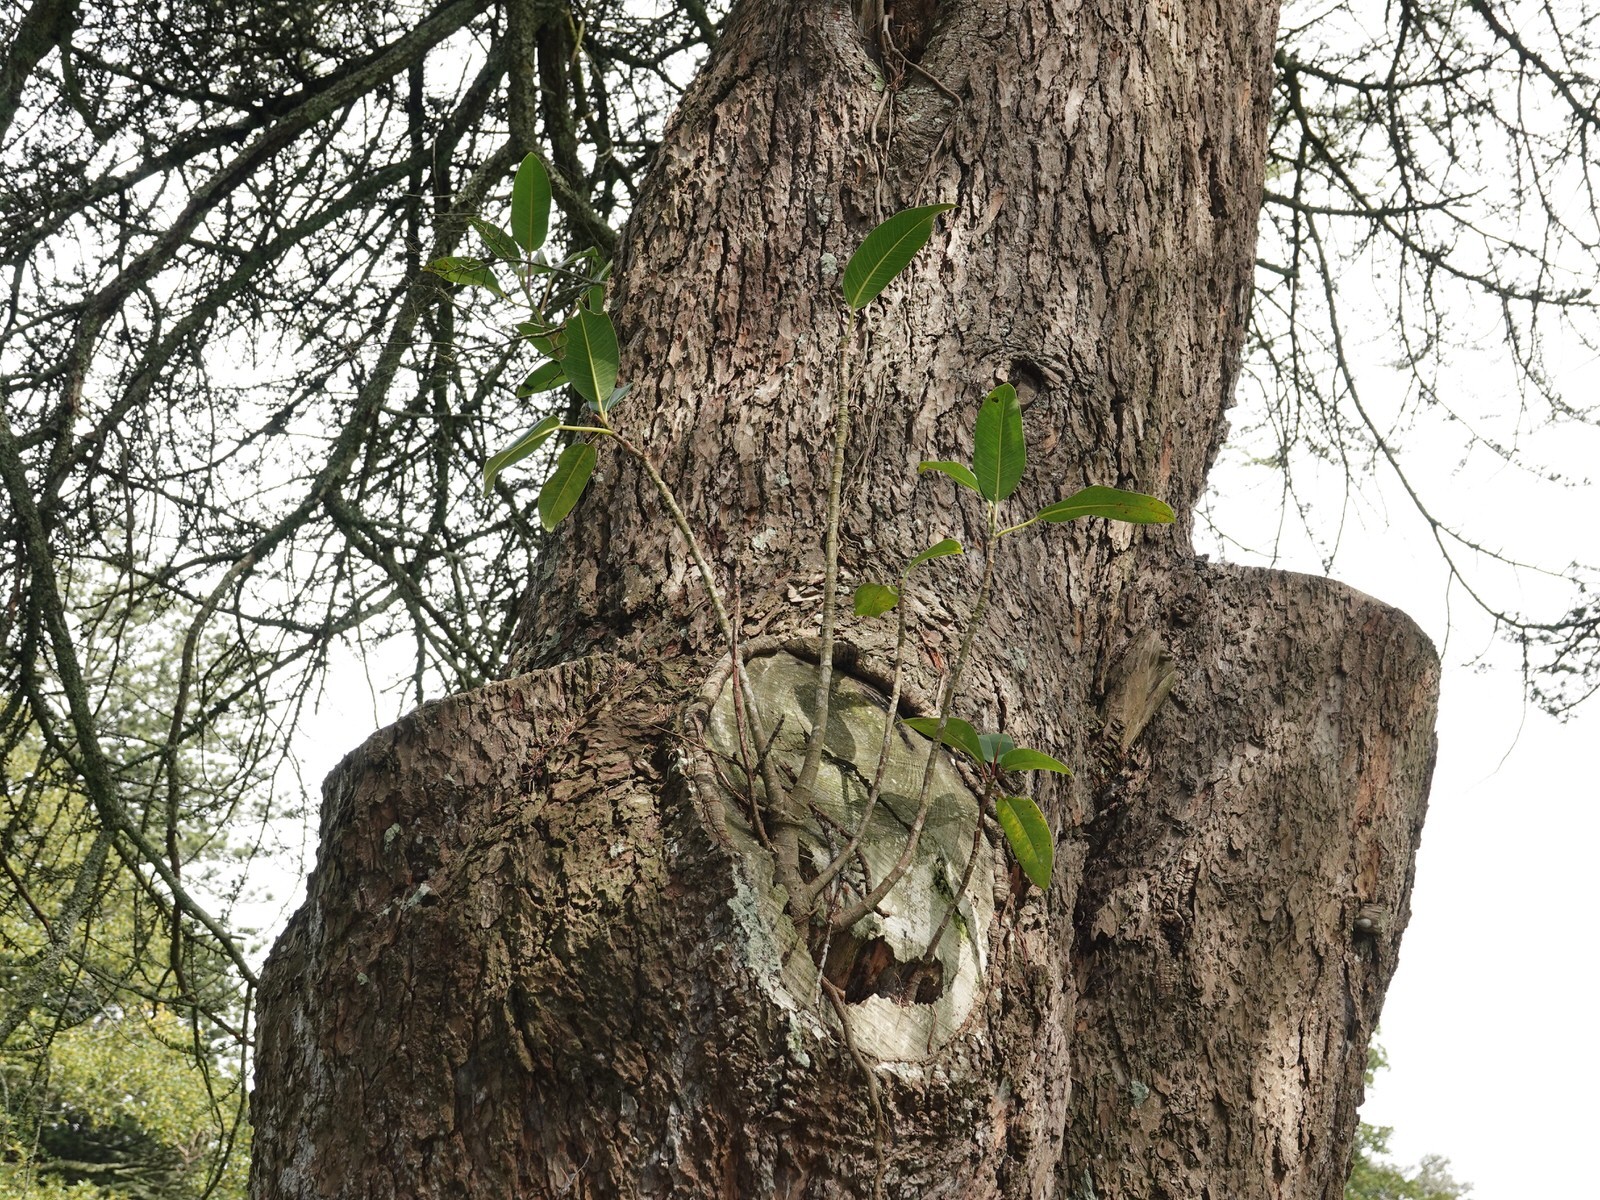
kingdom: Plantae
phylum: Tracheophyta
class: Magnoliopsida
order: Rosales
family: Moraceae
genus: Ficus
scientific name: Ficus macrophylla
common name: Moreton bay fig
